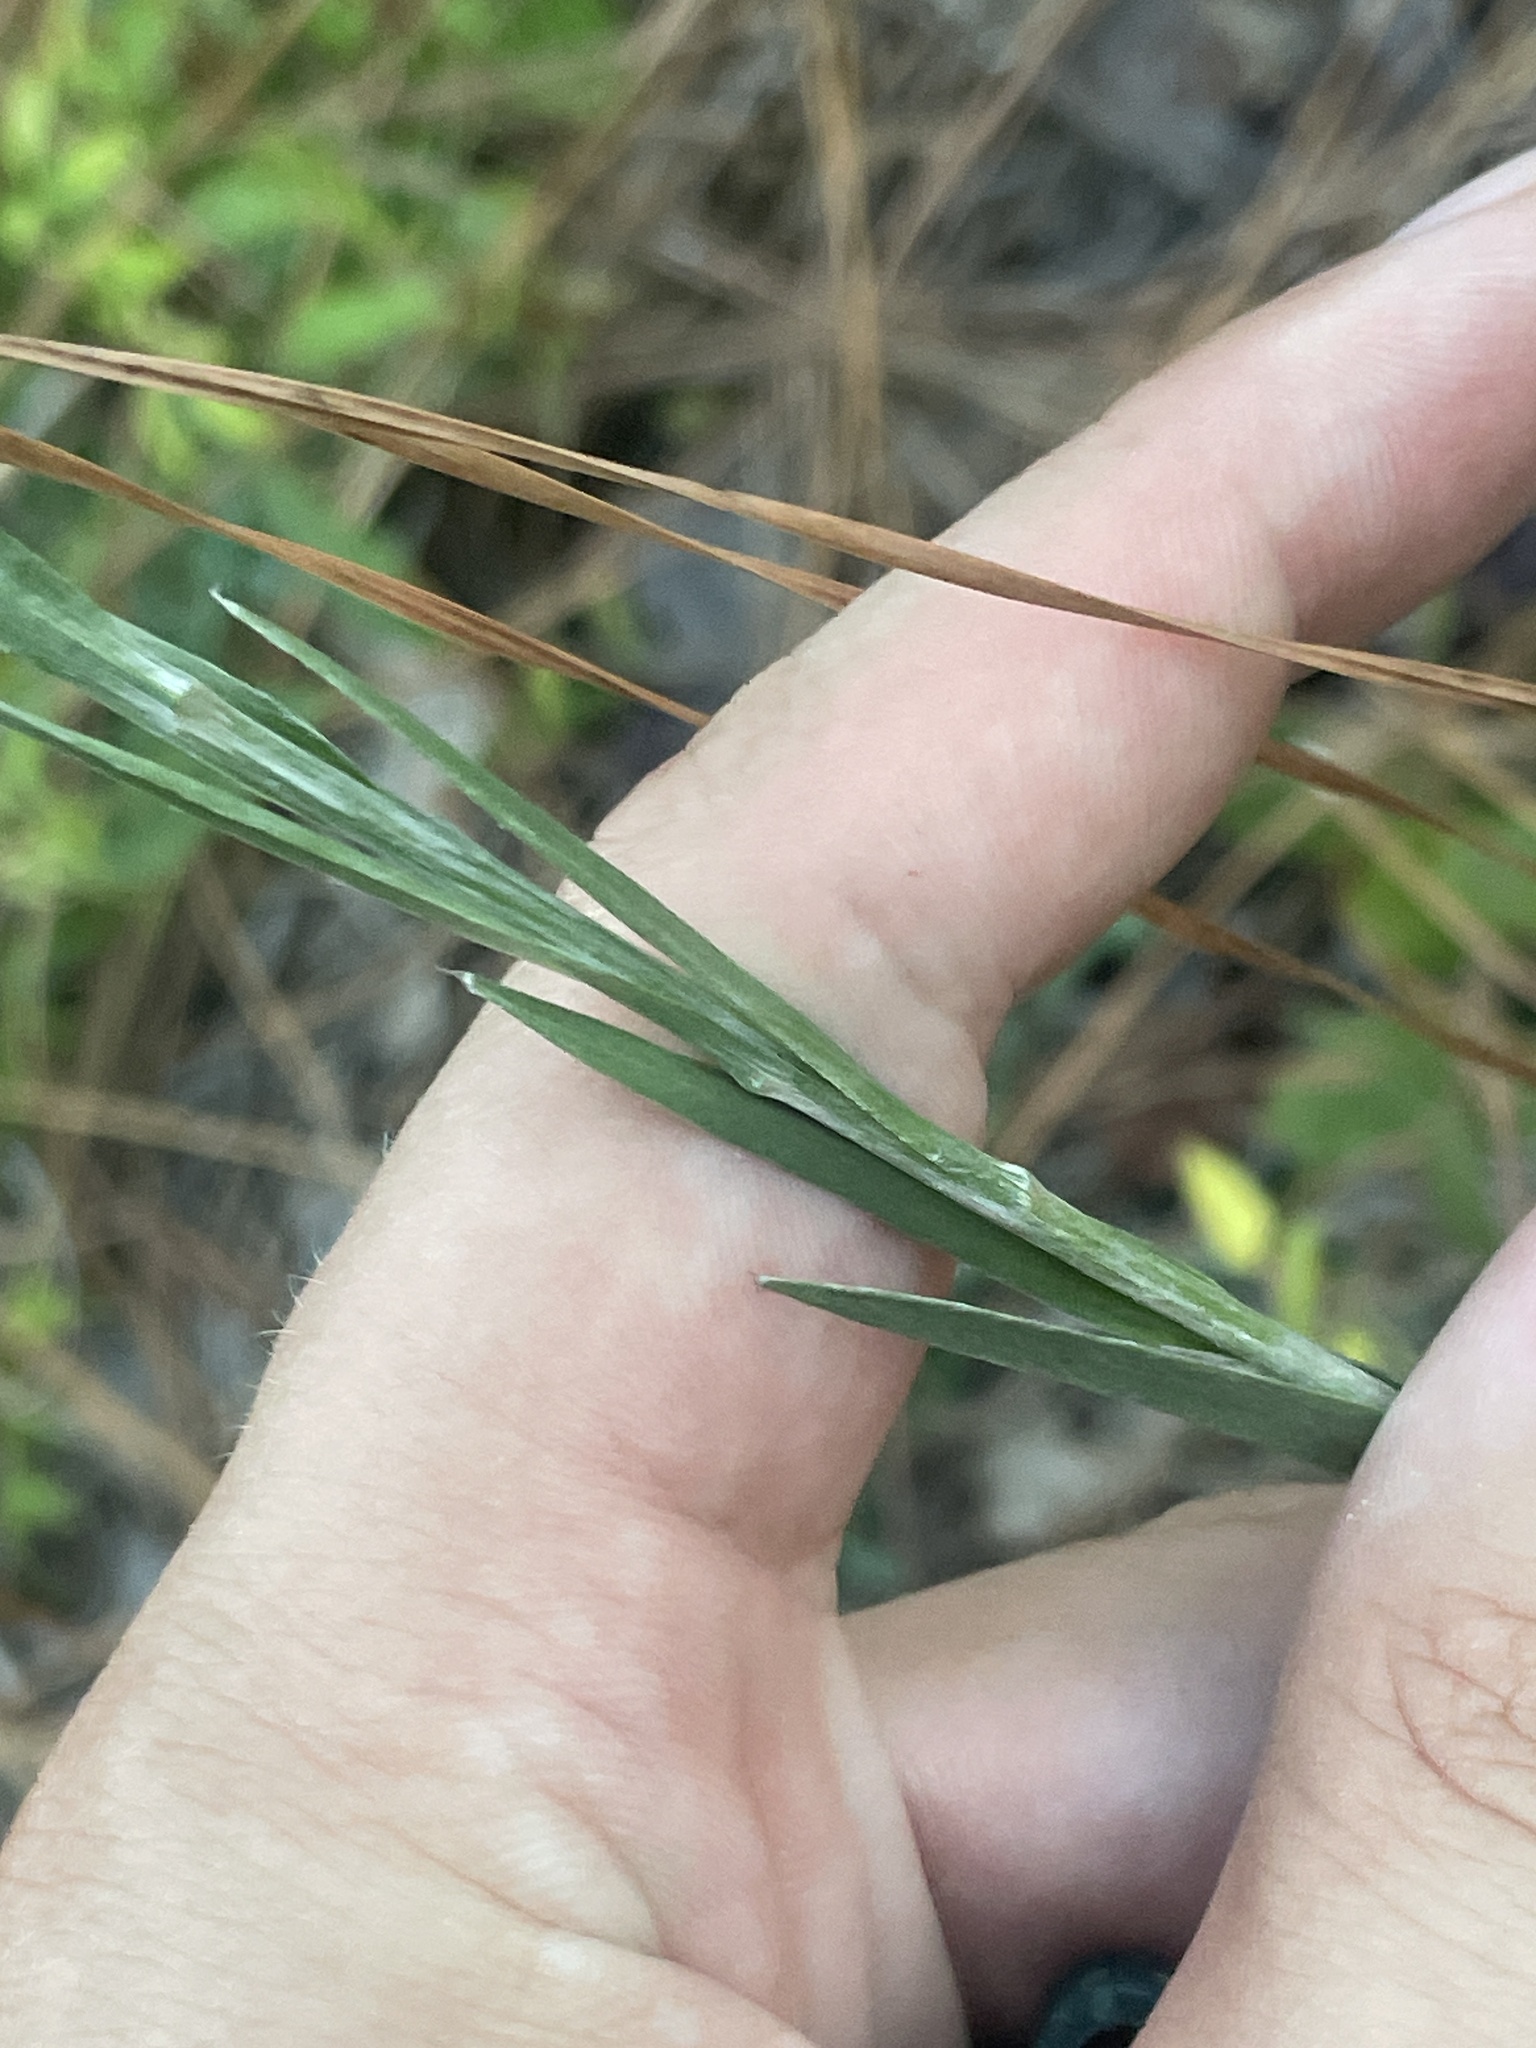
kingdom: Plantae
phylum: Tracheophyta
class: Magnoliopsida
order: Asterales
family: Asteraceae
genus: Pityopsis
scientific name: Pityopsis graminifolia
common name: Grass-leaf golden-aster
